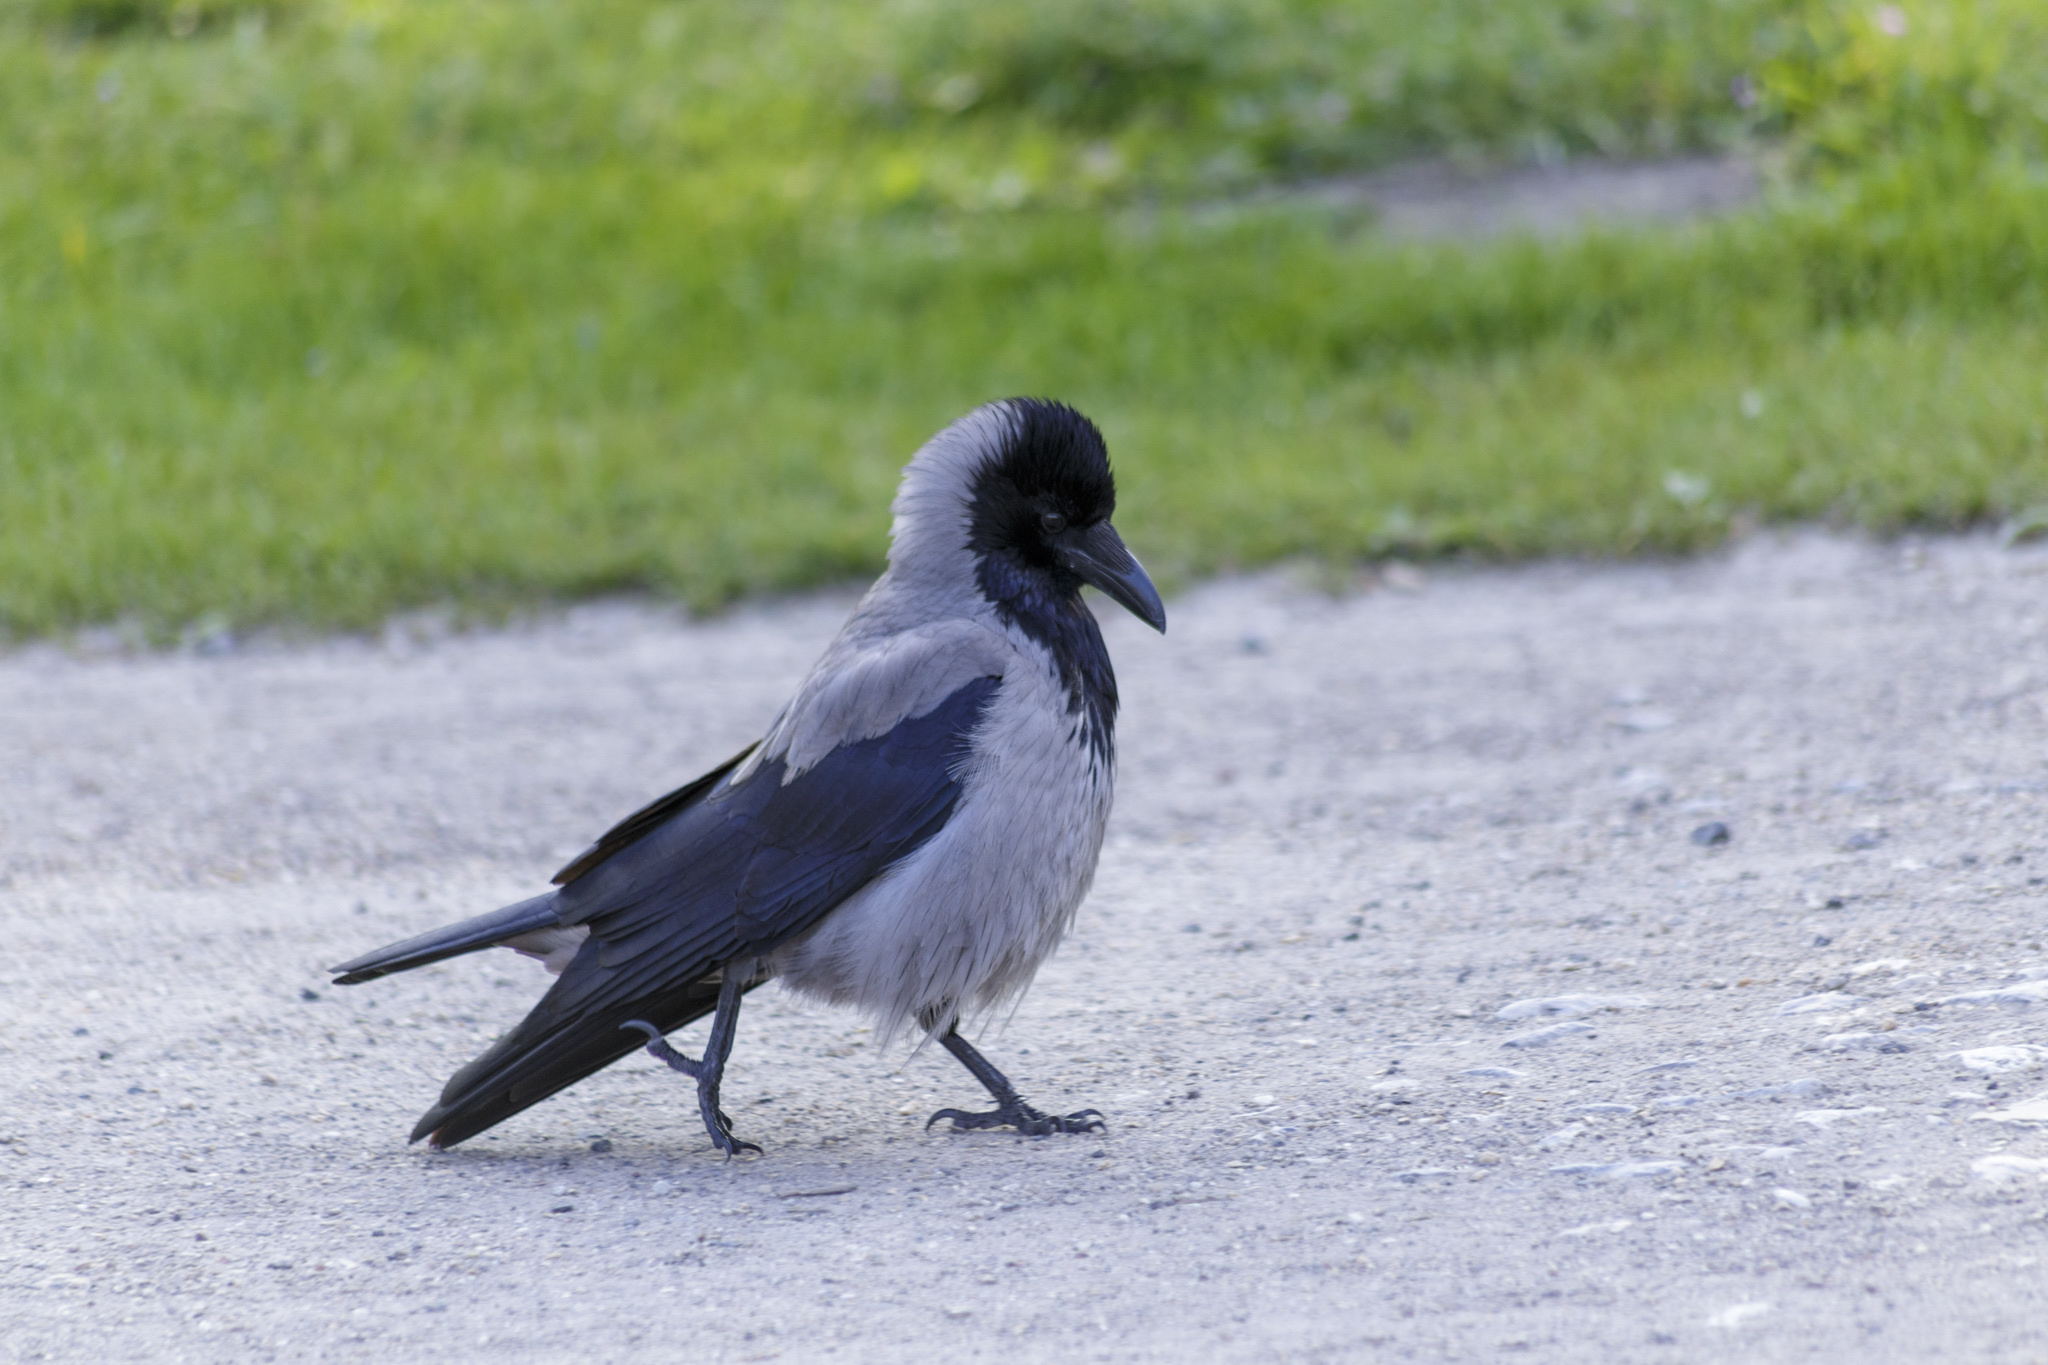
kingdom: Animalia
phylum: Chordata
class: Aves
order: Passeriformes
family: Corvidae
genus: Corvus
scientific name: Corvus cornix
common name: Hooded crow
